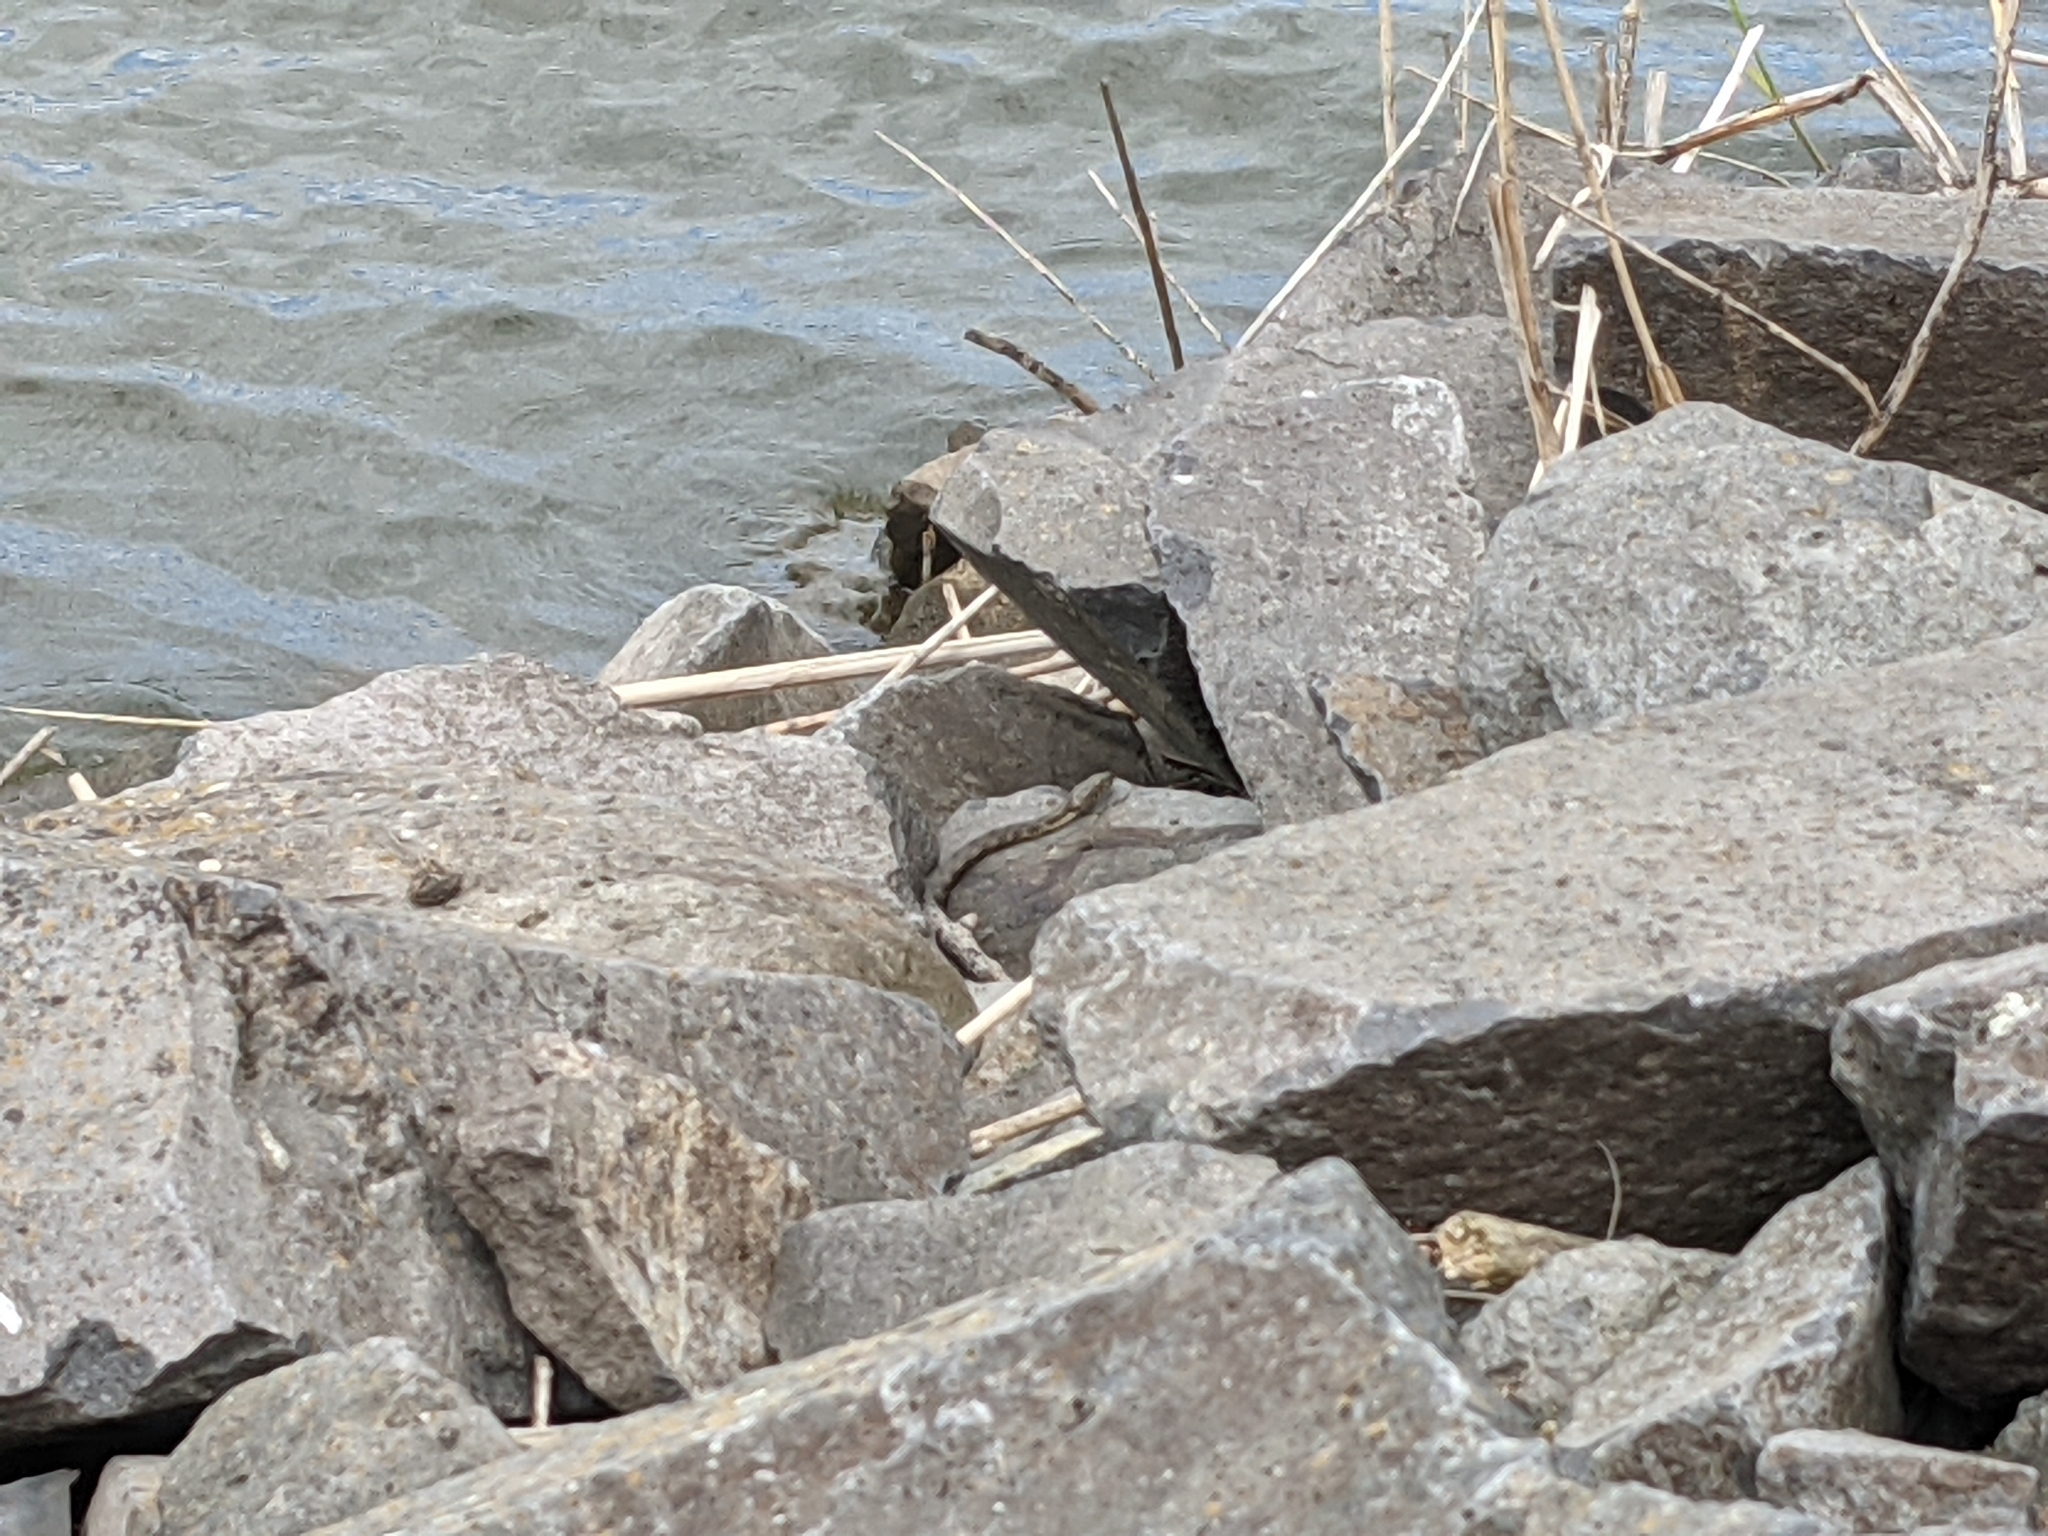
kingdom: Animalia
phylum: Chordata
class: Squamata
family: Colubridae
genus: Natrix
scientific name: Natrix tessellata
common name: Dice snake
